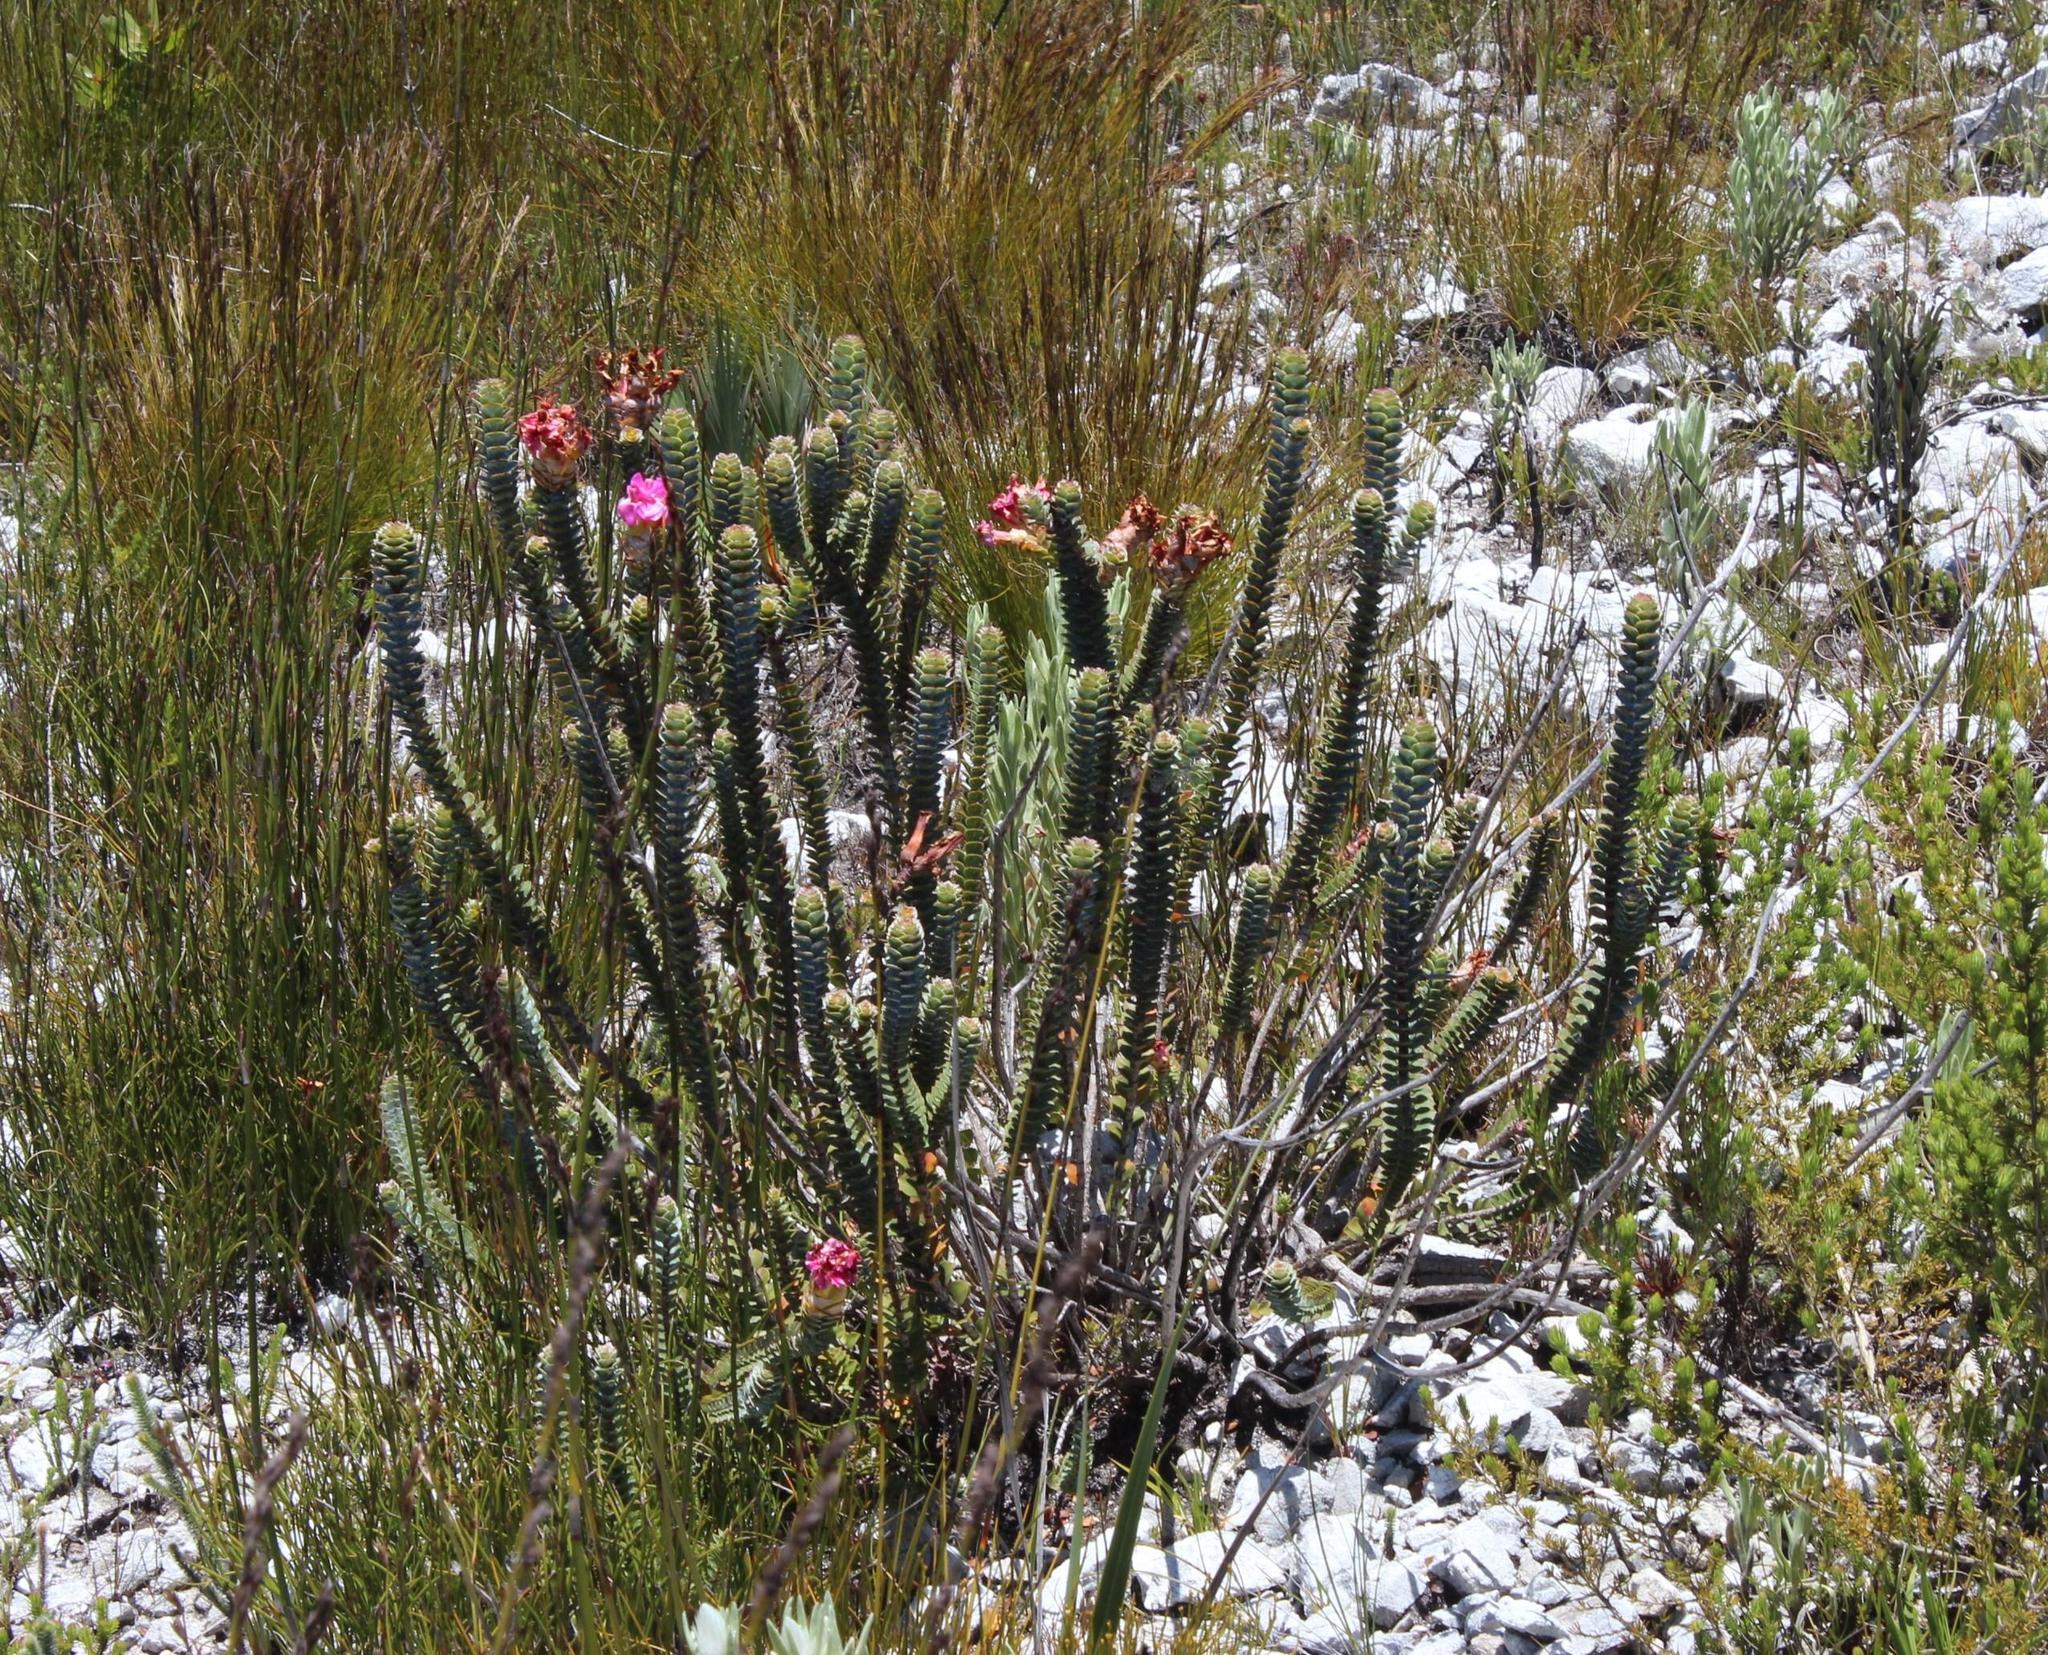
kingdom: Plantae
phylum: Tracheophyta
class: Magnoliopsida
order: Myrtales
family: Penaeaceae
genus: Saltera
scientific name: Saltera sarcocolla
